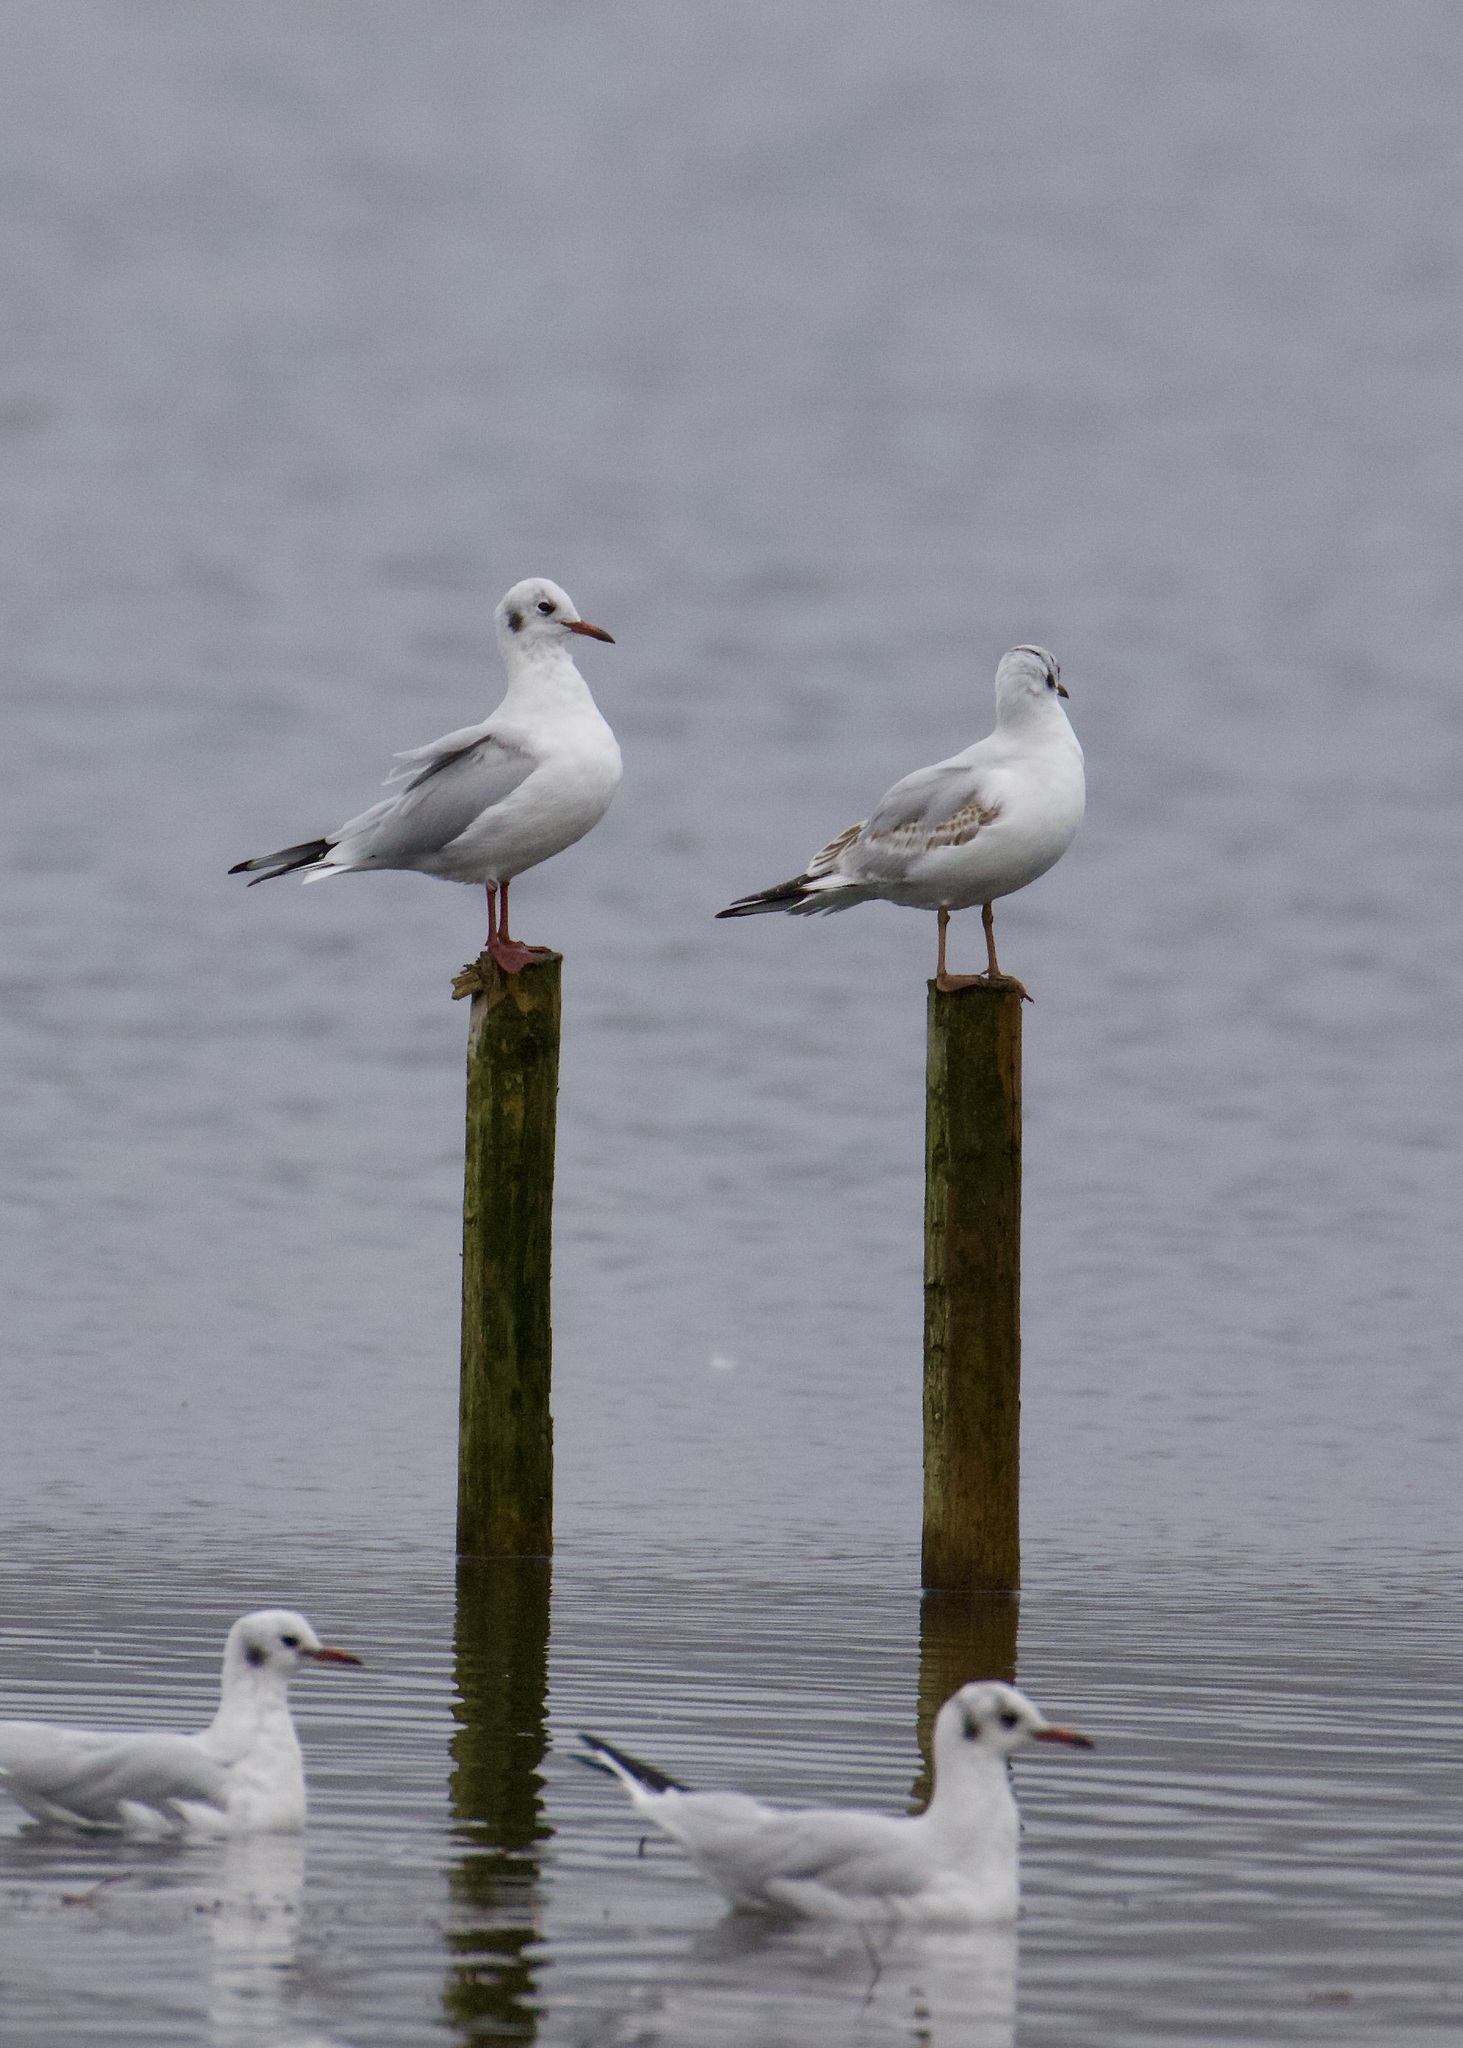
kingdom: Animalia
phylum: Chordata
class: Aves
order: Charadriiformes
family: Laridae
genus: Chroicocephalus
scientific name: Chroicocephalus ridibundus
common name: Black-headed gull
